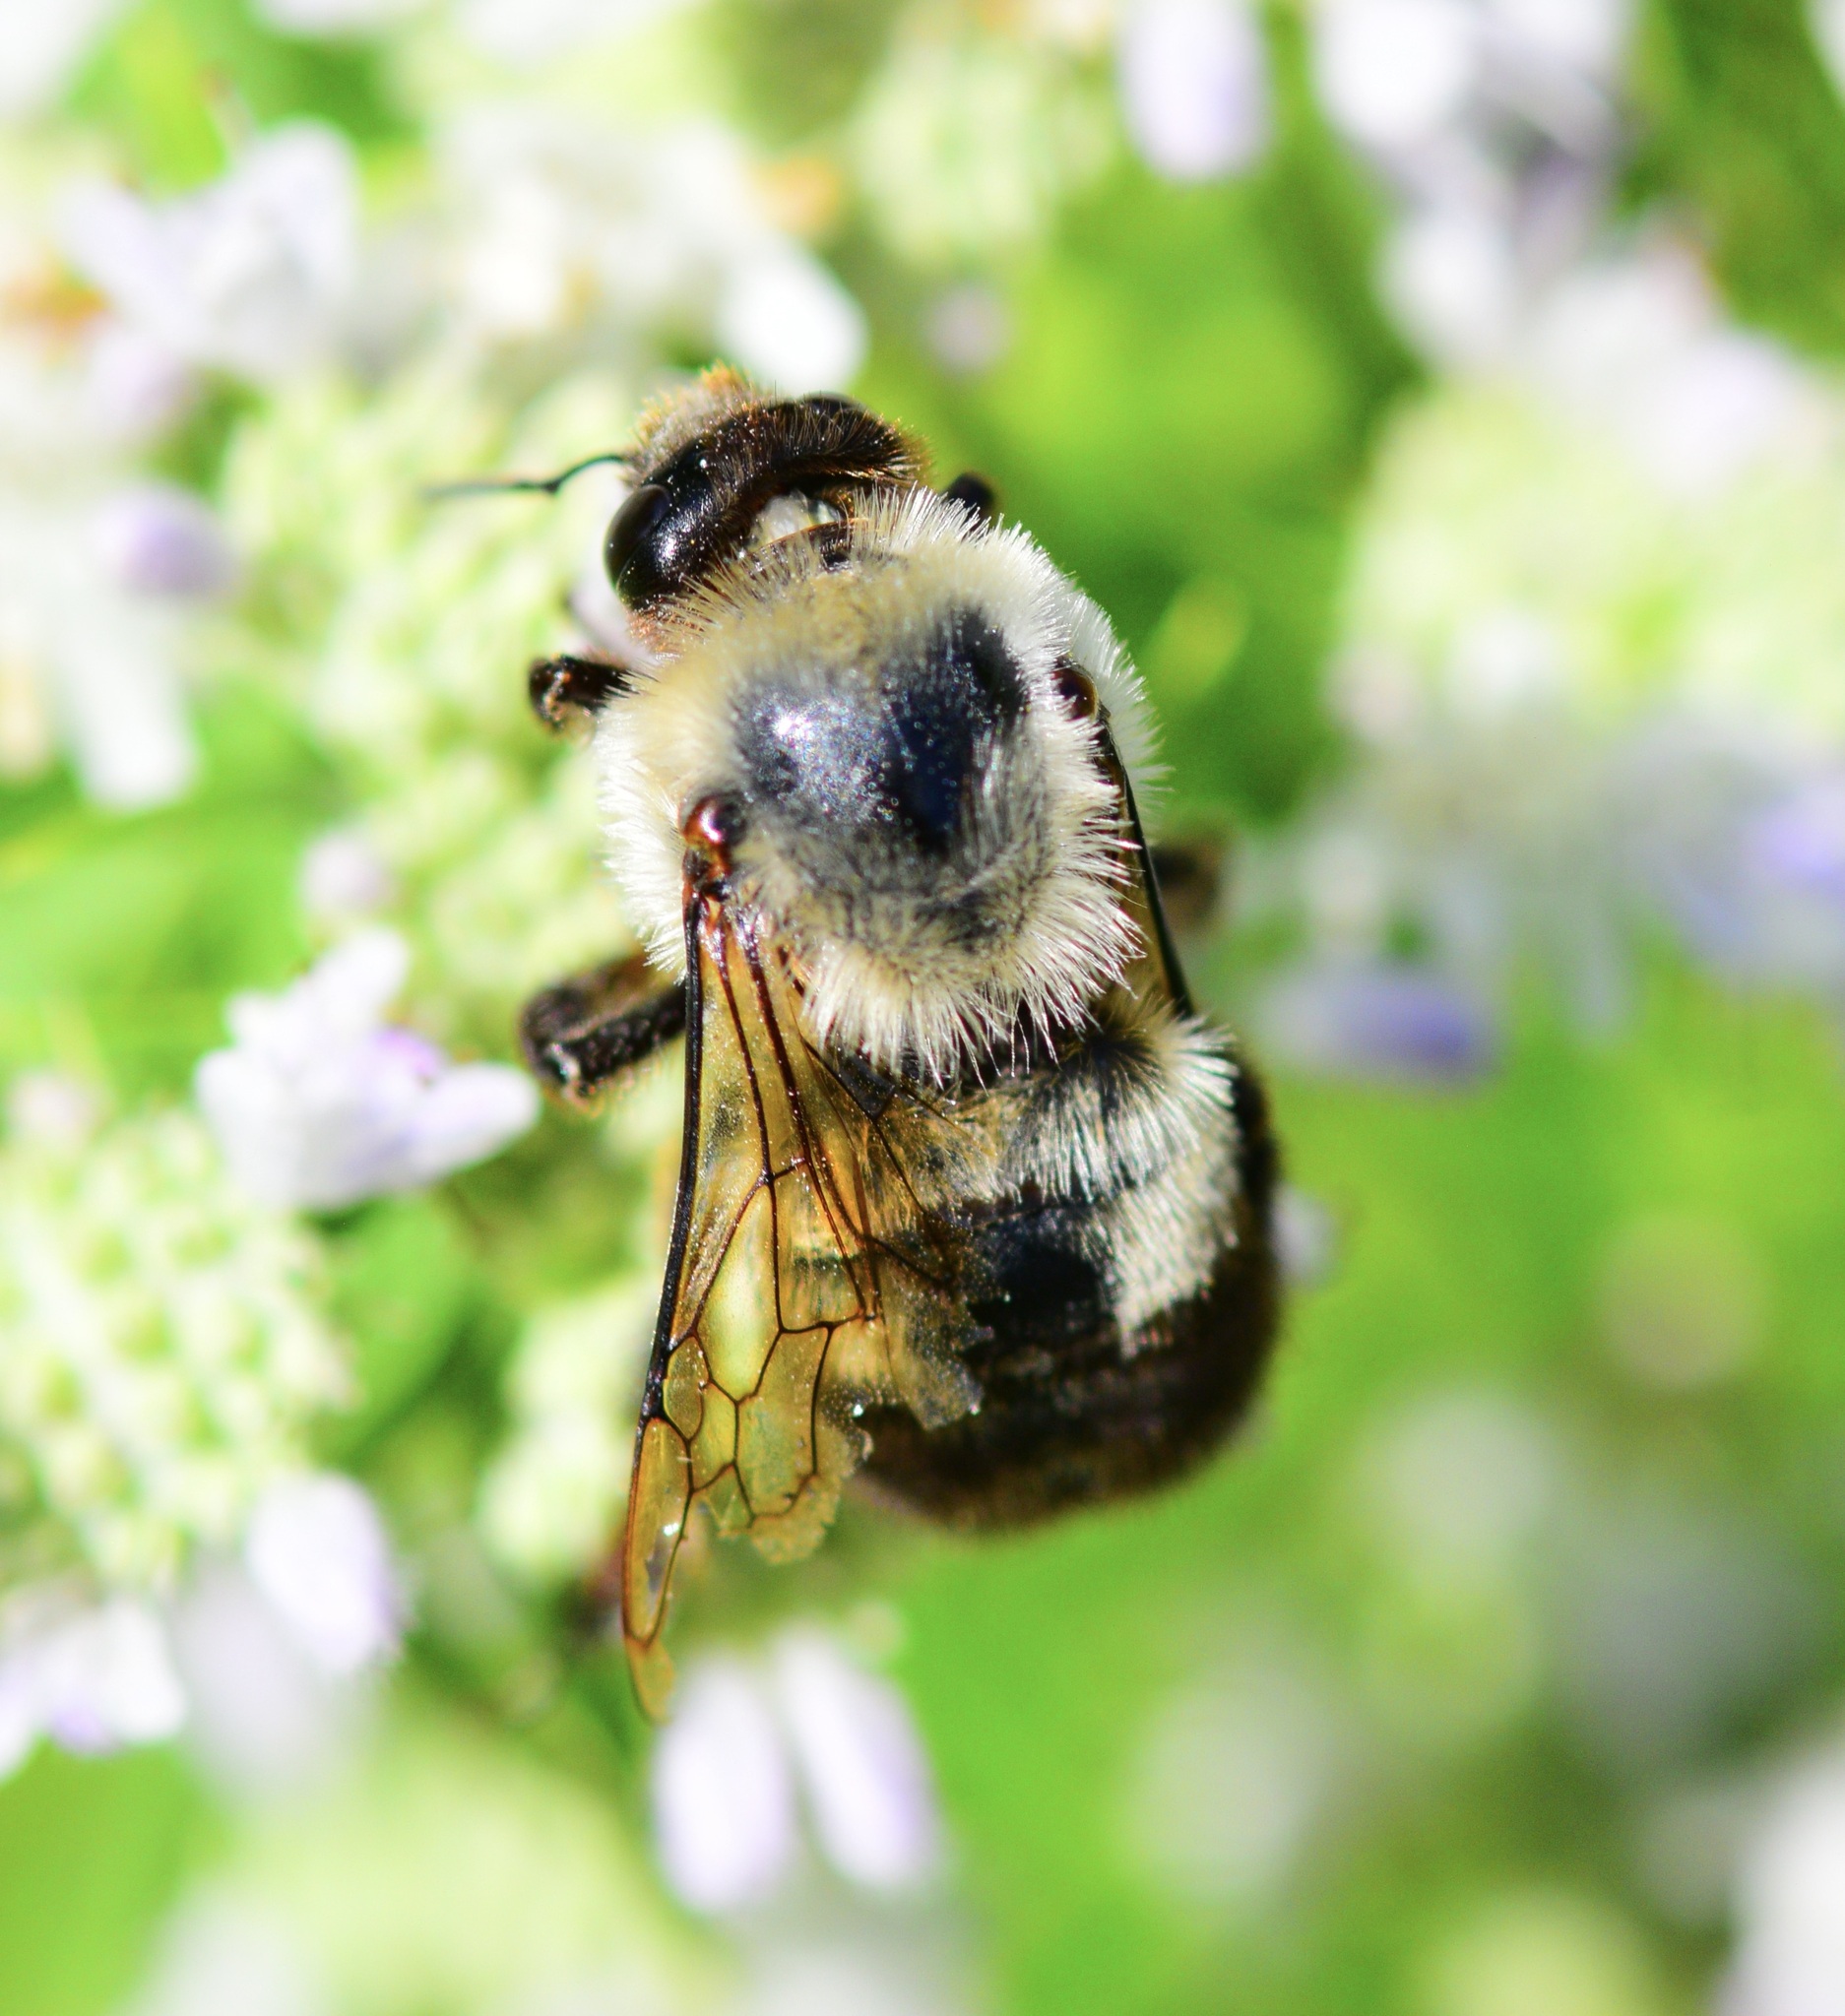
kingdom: Animalia
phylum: Arthropoda
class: Insecta
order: Hymenoptera
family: Apidae
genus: Bombus
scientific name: Bombus griseocollis
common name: Brown-belted bumble bee
